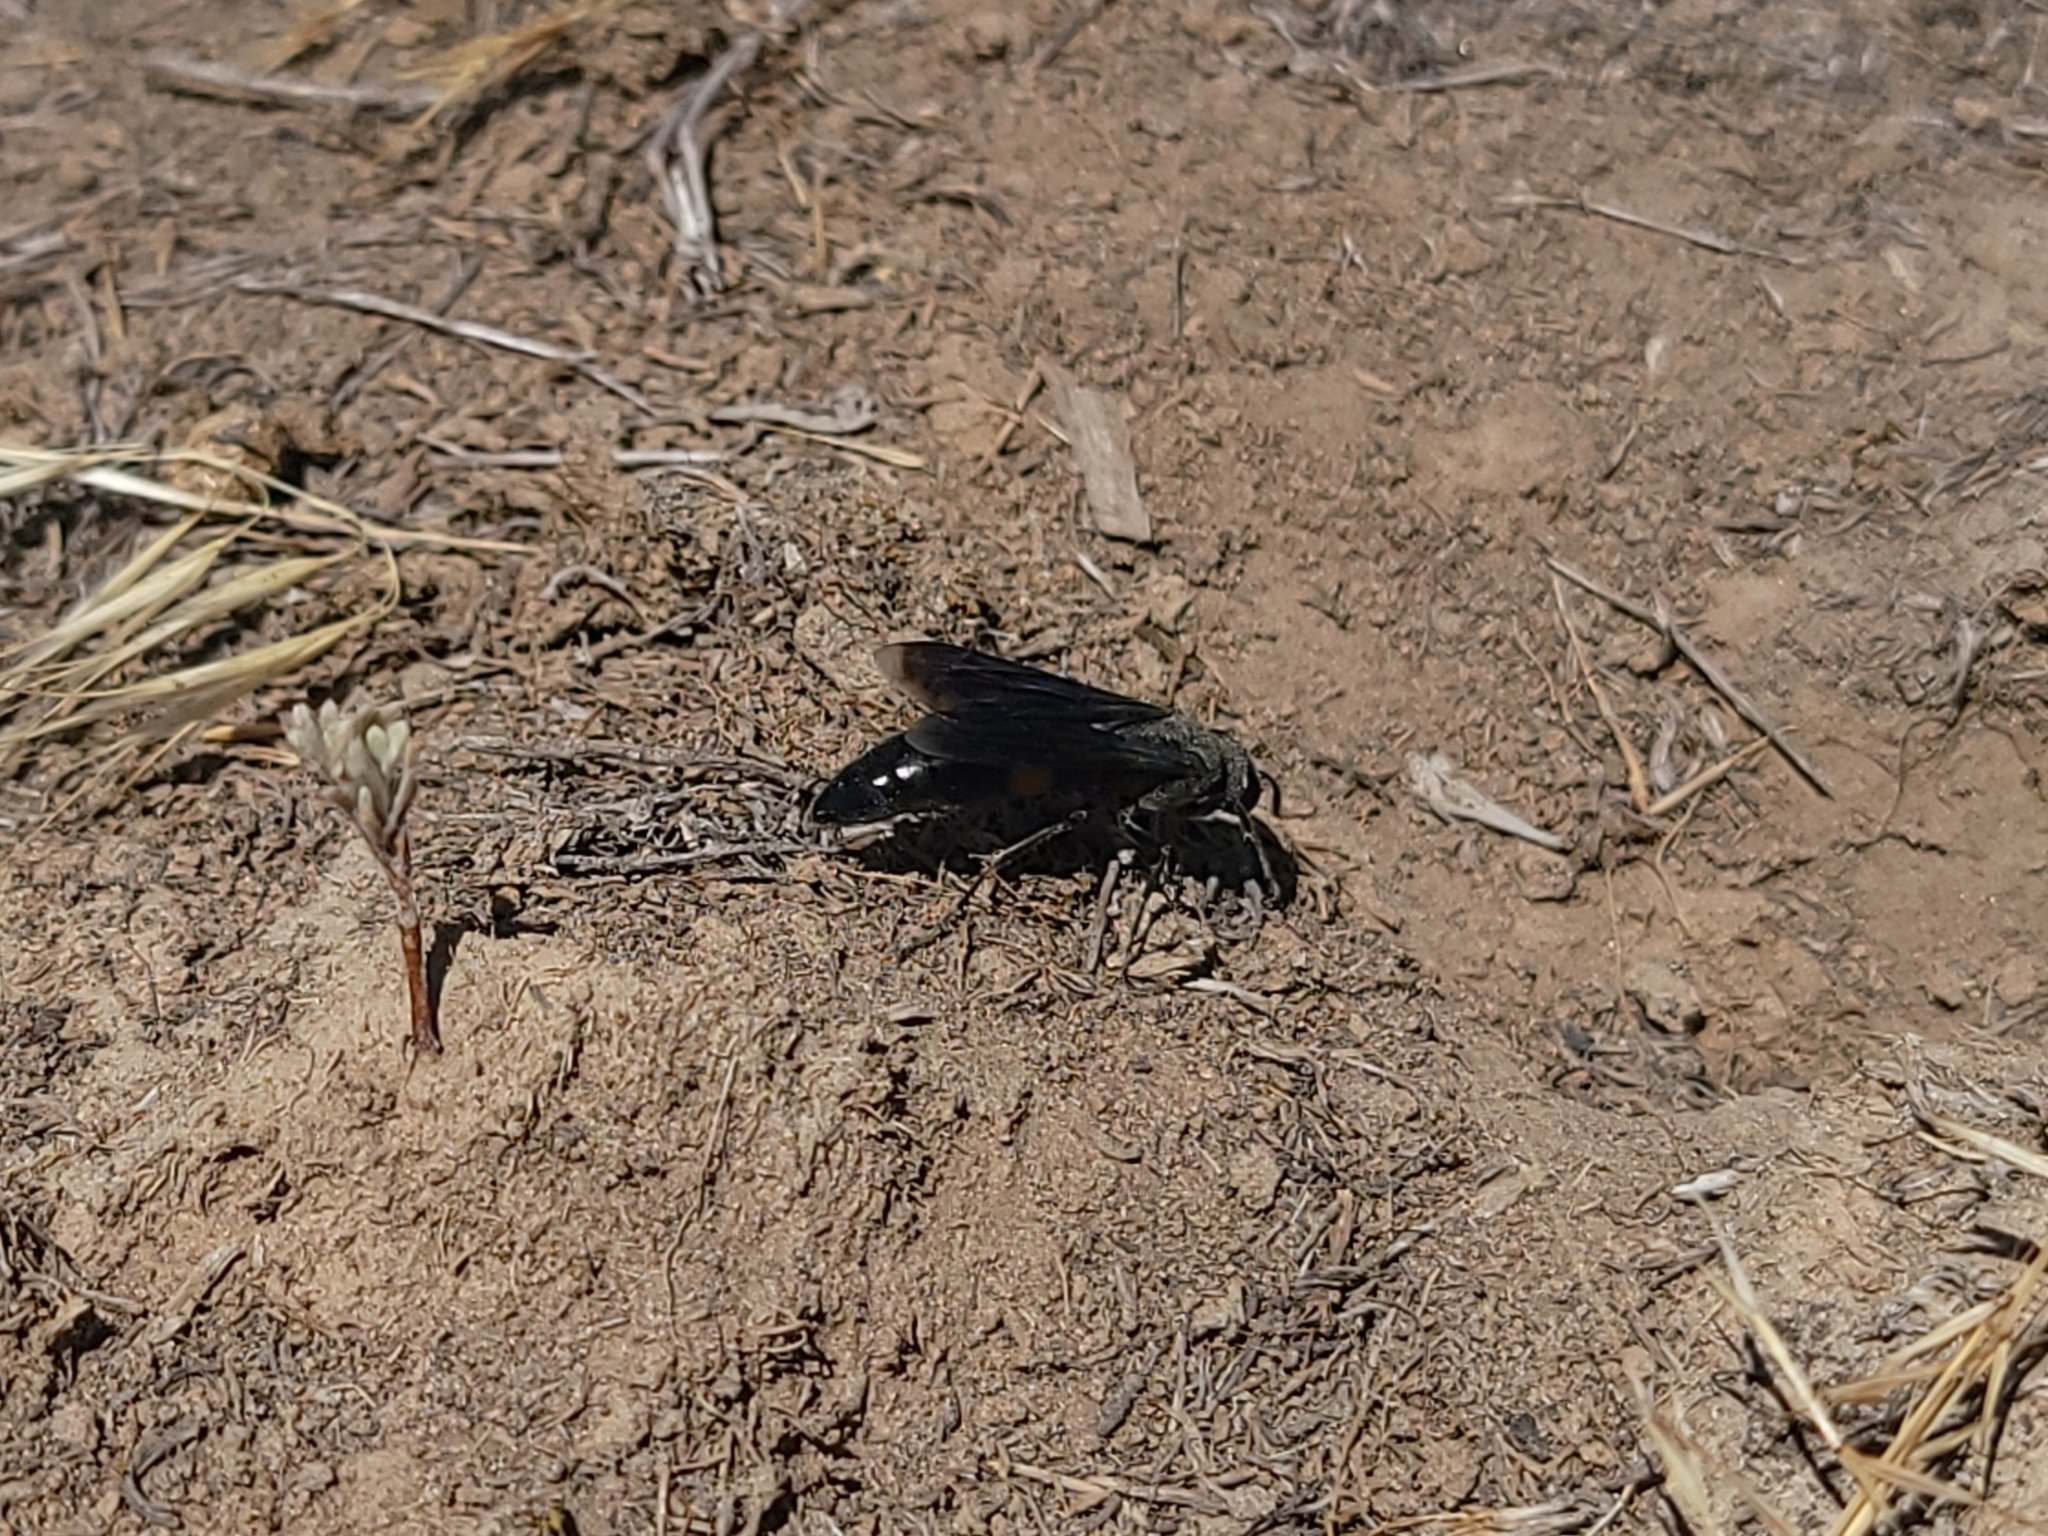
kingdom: Animalia
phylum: Arthropoda
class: Insecta
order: Hymenoptera
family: Crabronidae
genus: Stizoides
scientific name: Stizoides renicinctus
